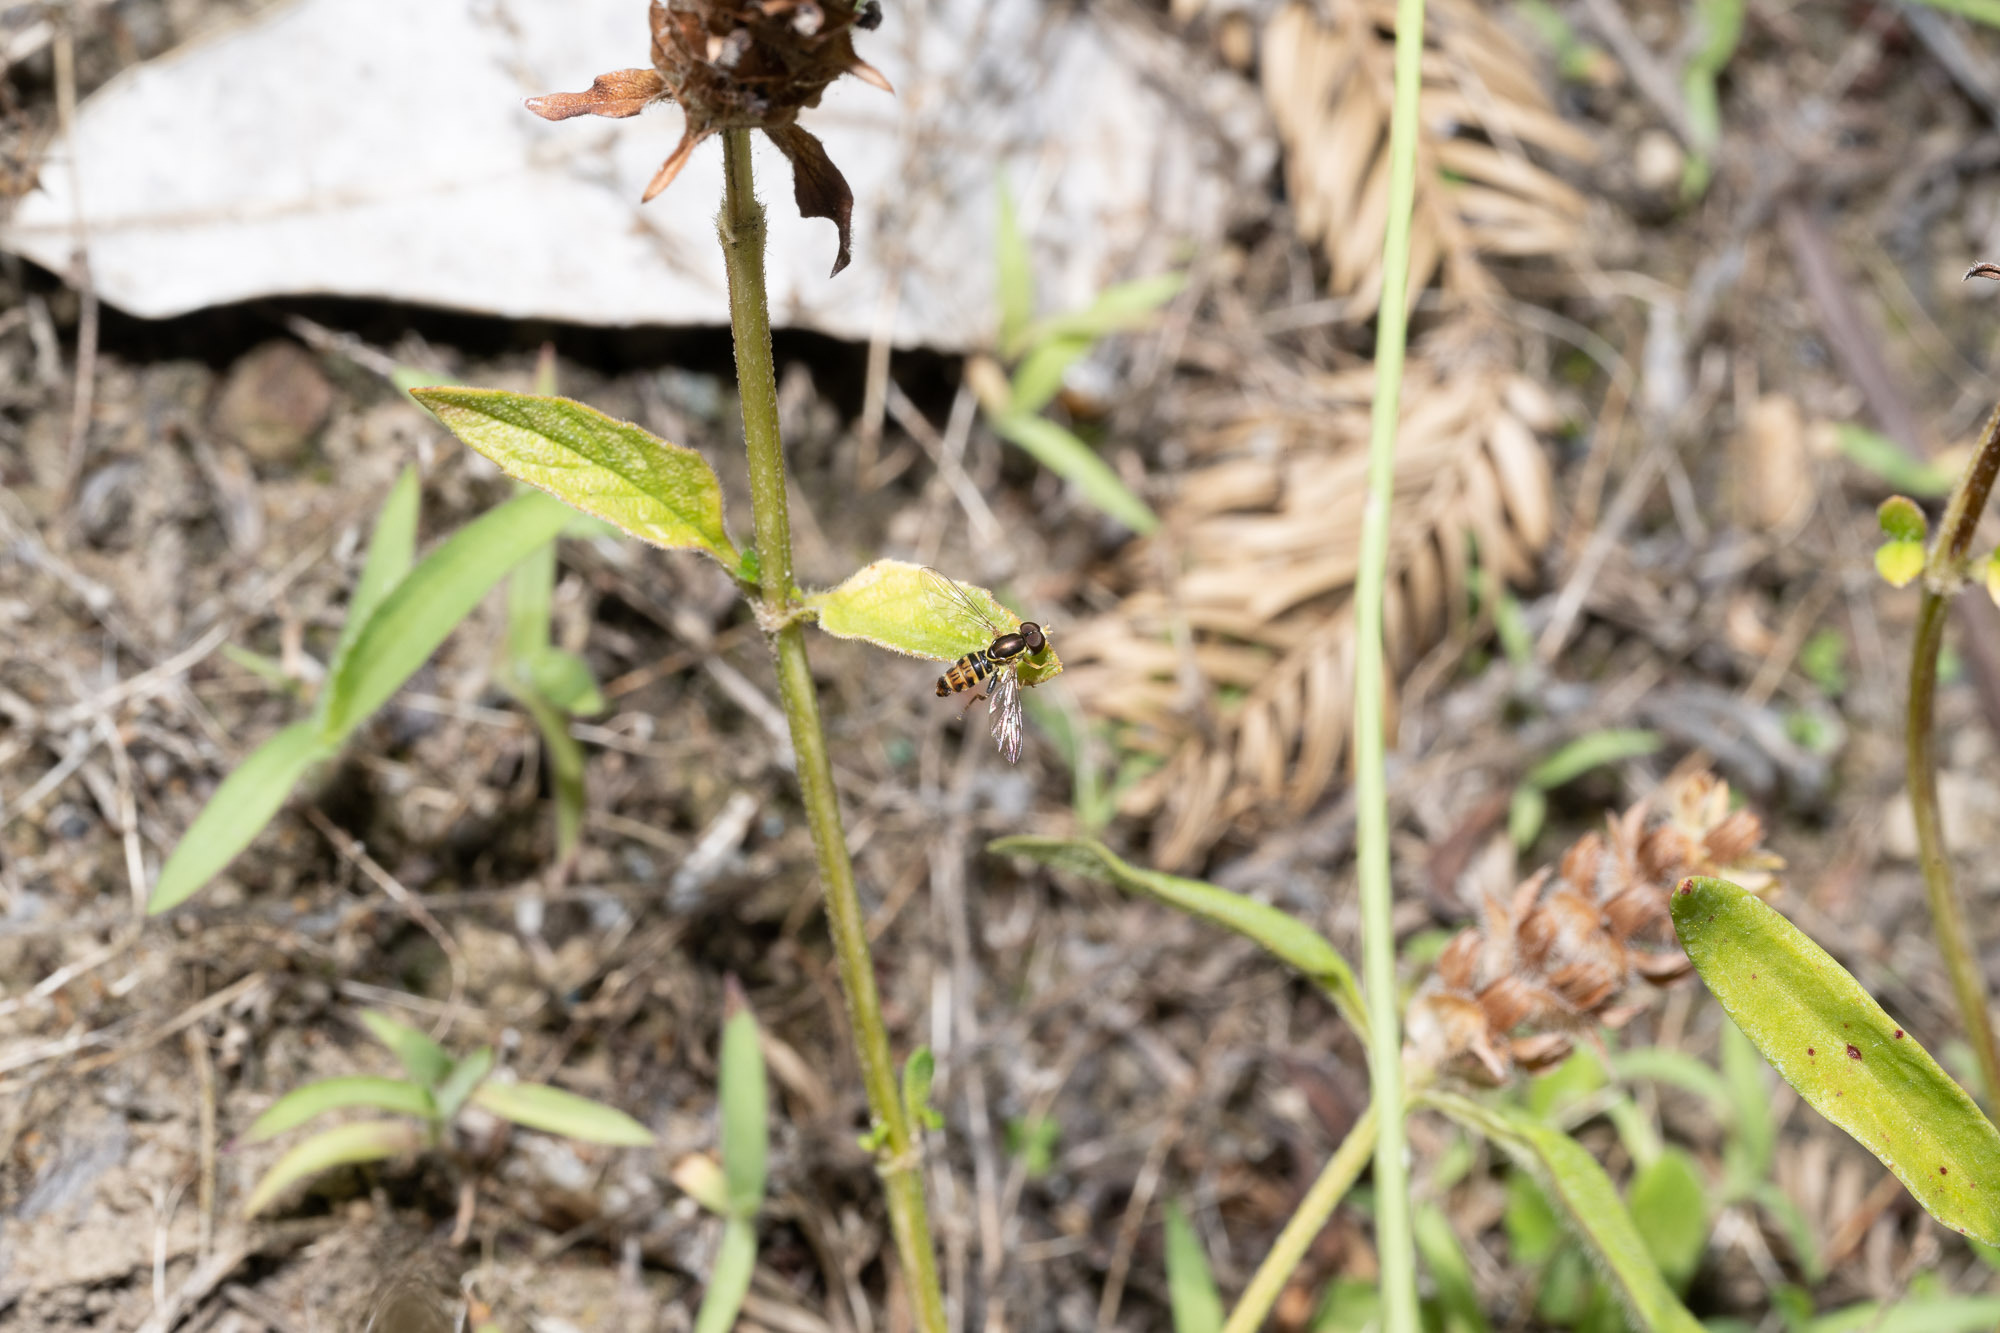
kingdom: Animalia
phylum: Arthropoda
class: Insecta
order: Diptera
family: Syrphidae
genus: Toxomerus
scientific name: Toxomerus occidentalis
